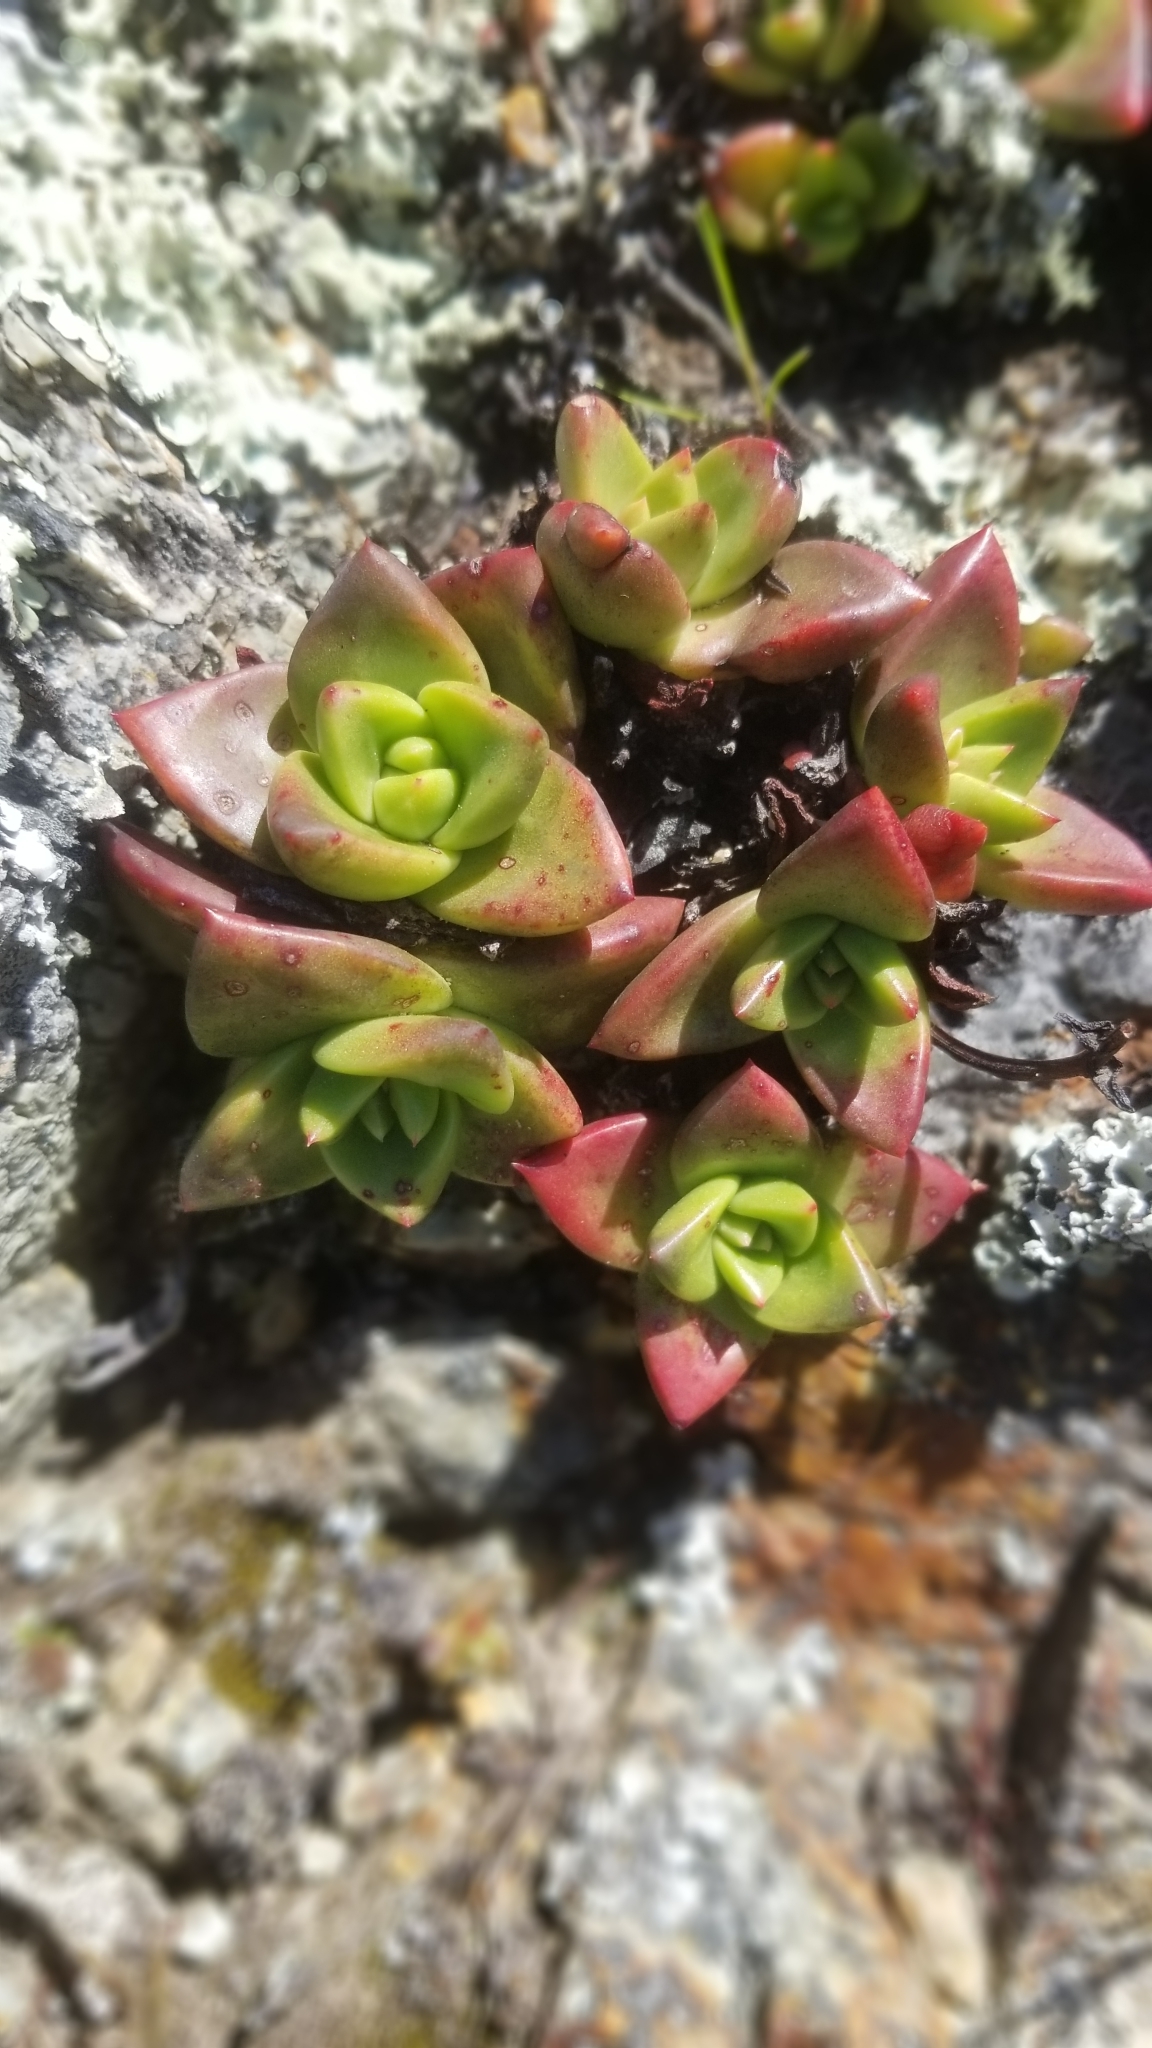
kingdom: Plantae
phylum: Tracheophyta
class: Magnoliopsida
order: Saxifragales
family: Crassulaceae
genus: Dudleya
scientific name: Dudleya farinosa
